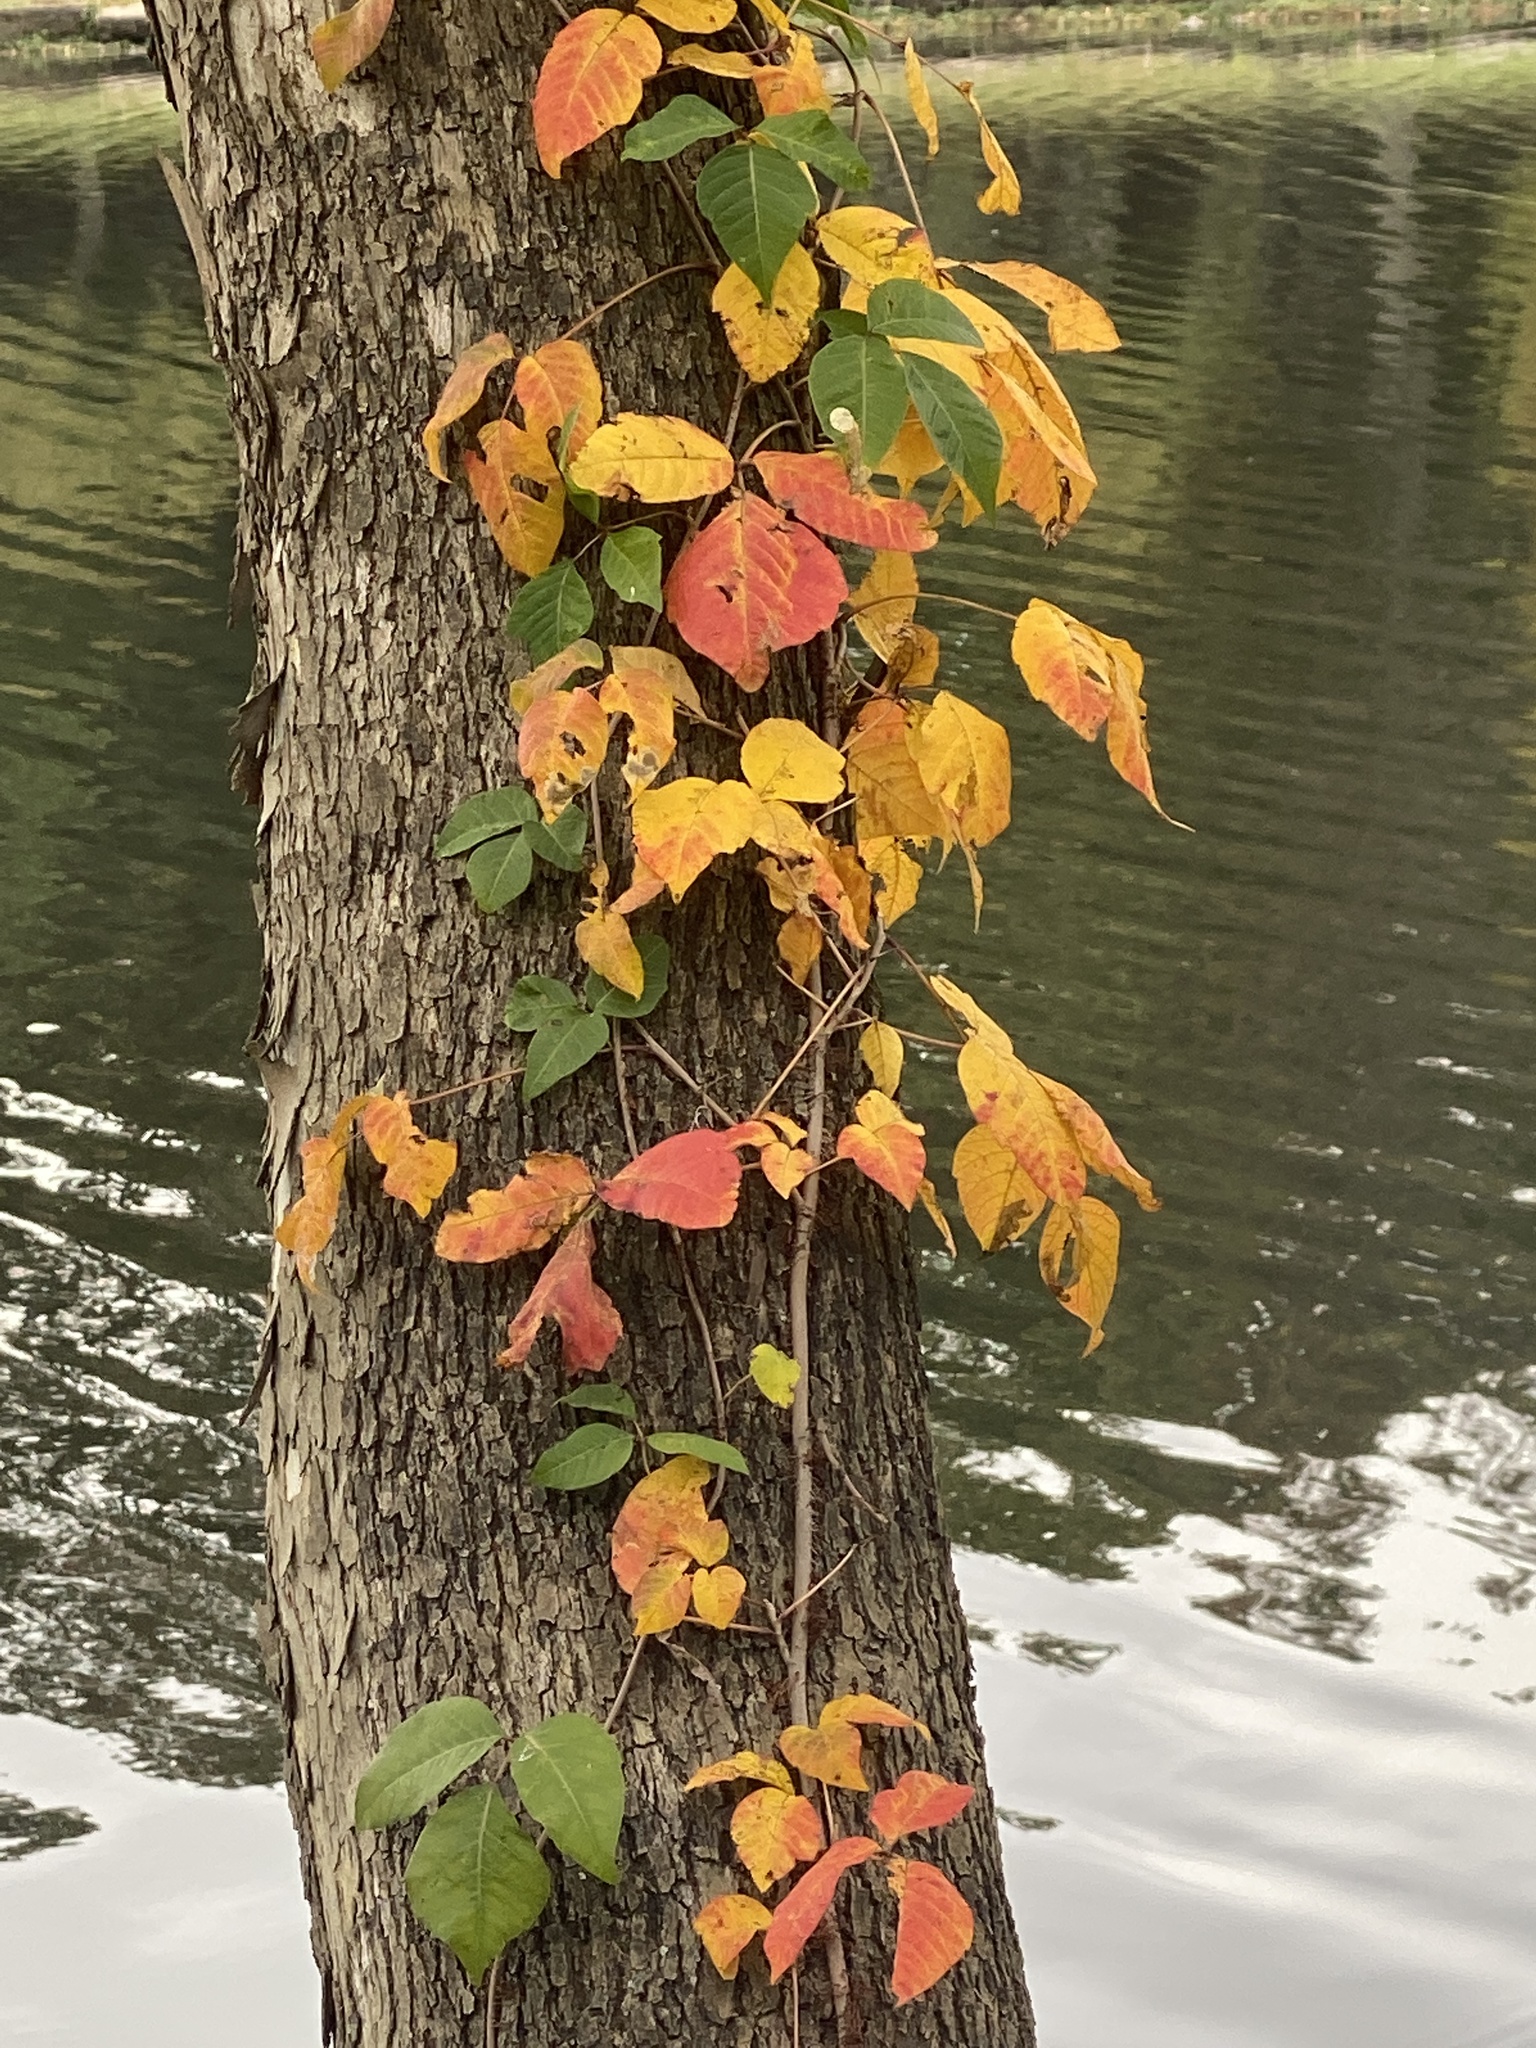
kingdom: Plantae
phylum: Tracheophyta
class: Magnoliopsida
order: Sapindales
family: Anacardiaceae
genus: Toxicodendron
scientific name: Toxicodendron radicans
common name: Poison ivy
